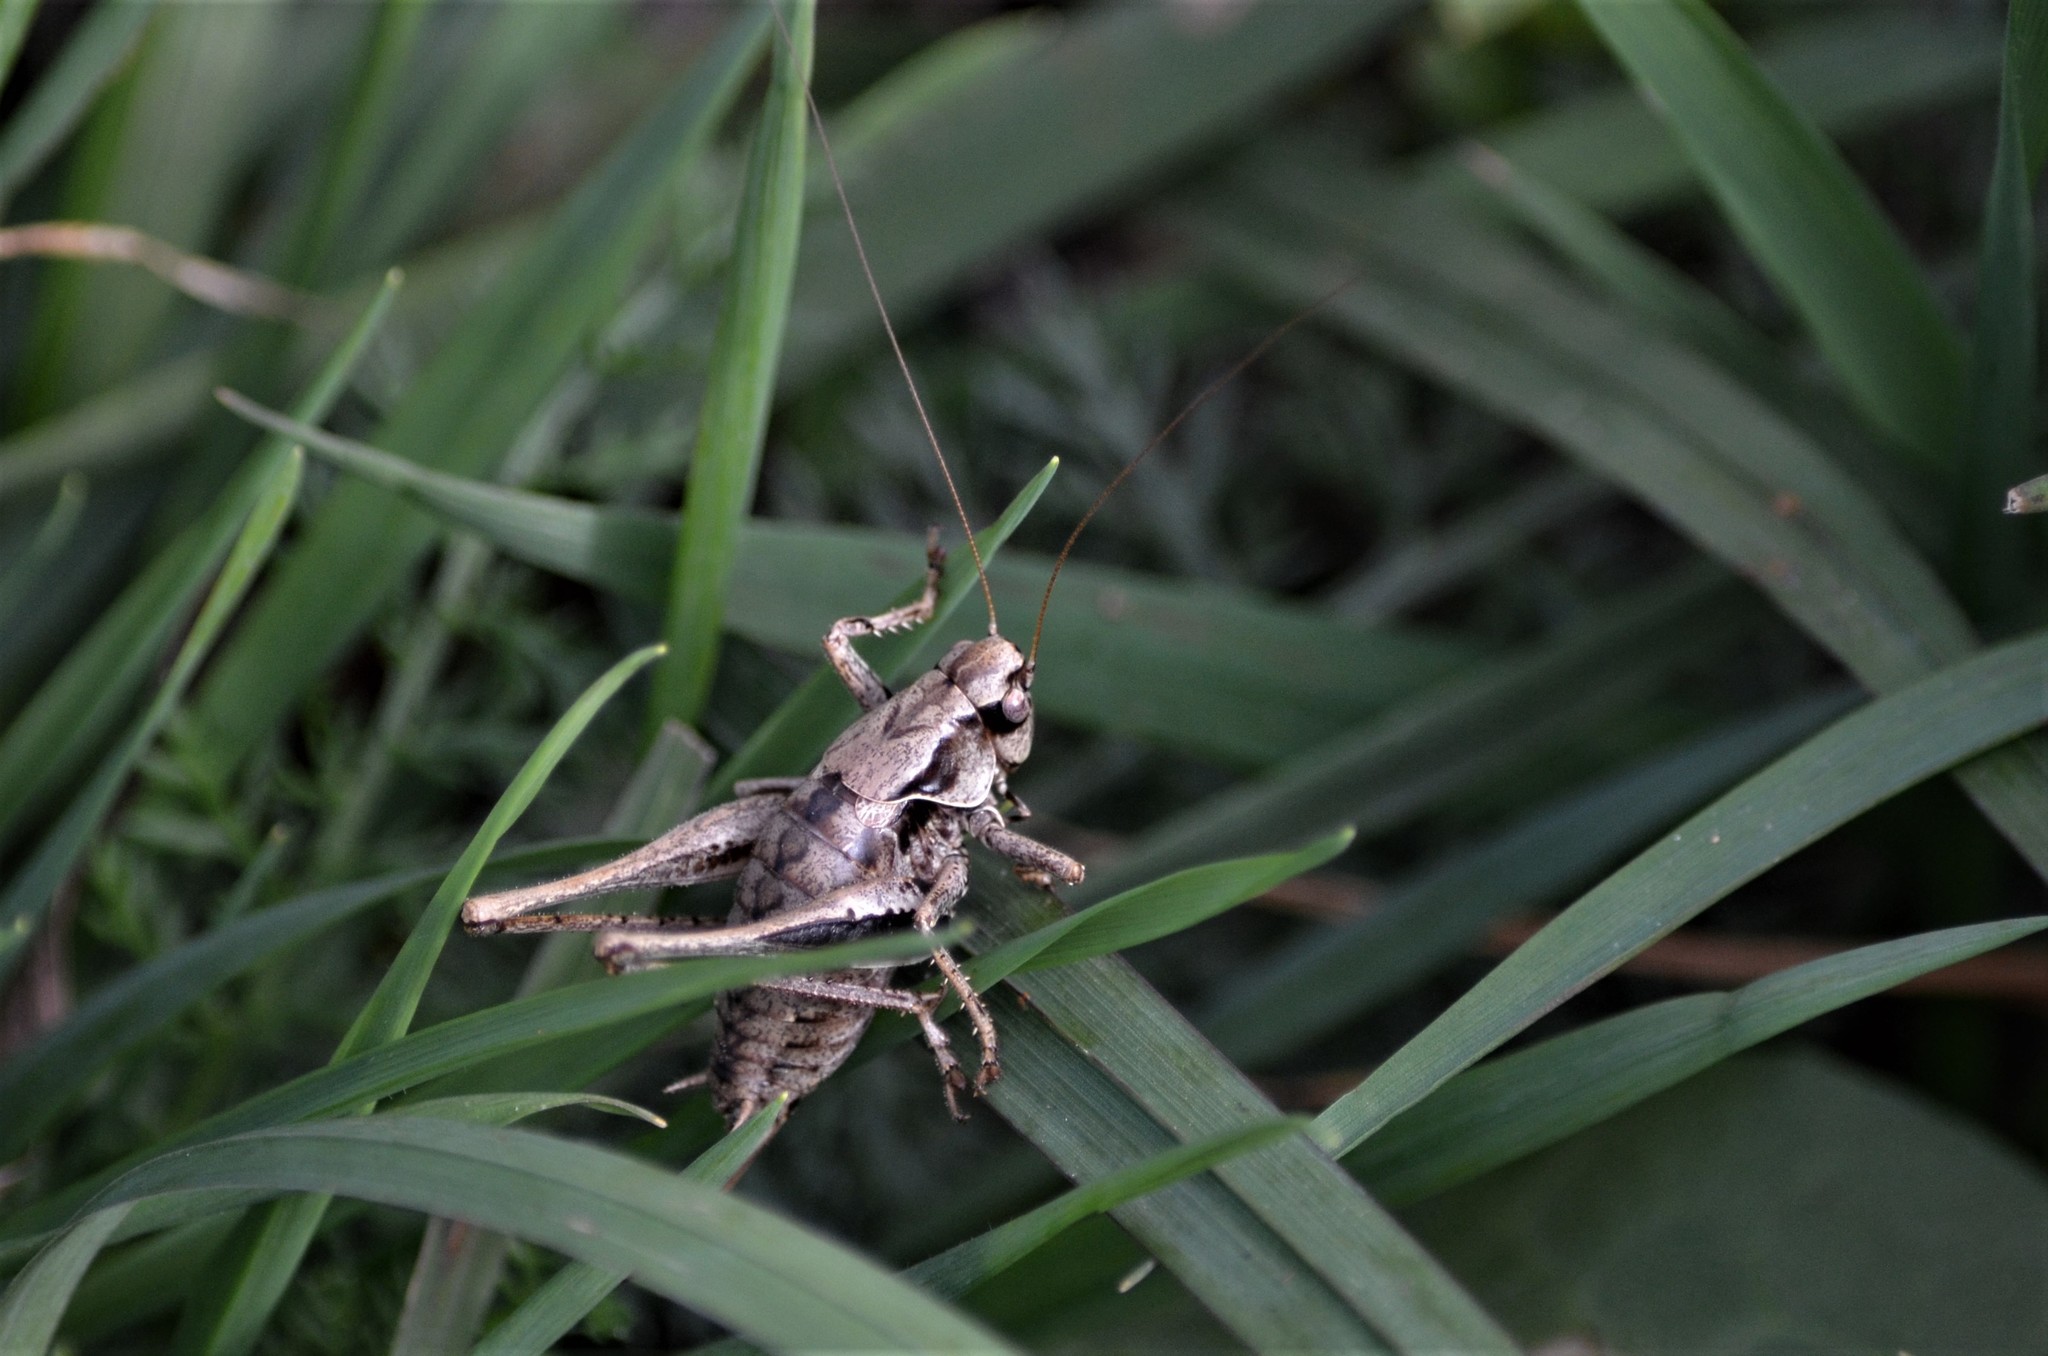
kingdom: Animalia
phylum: Arthropoda
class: Insecta
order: Orthoptera
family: Tettigoniidae
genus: Pholidoptera
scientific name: Pholidoptera griseoaptera
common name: Dark bush-cricket
